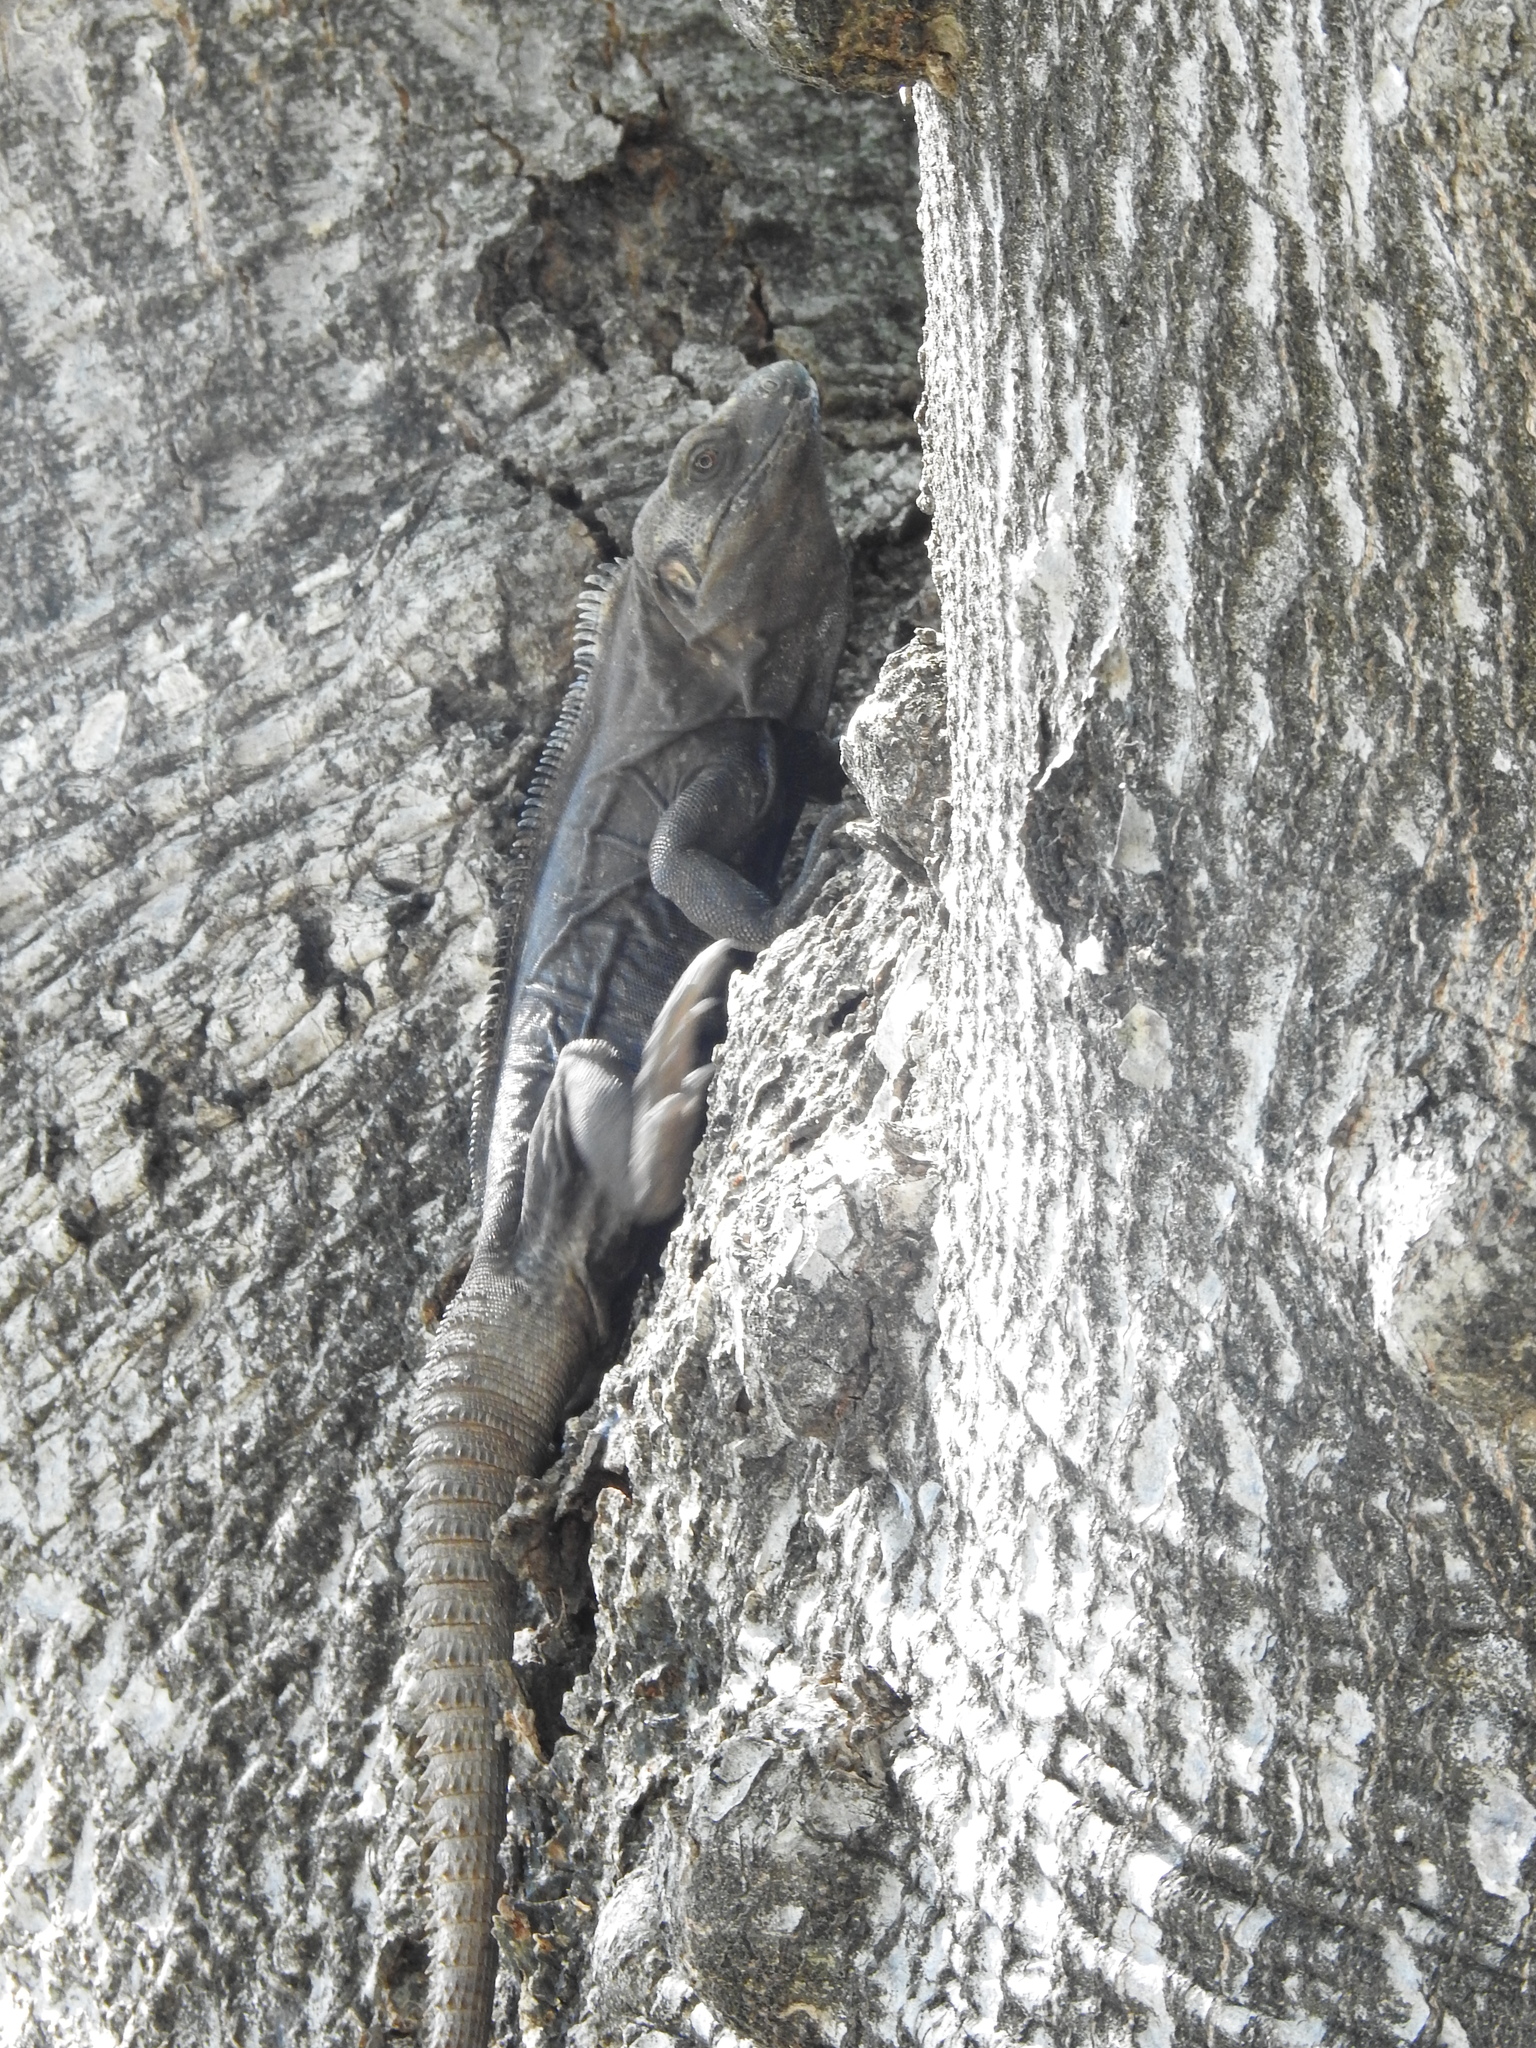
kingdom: Animalia
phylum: Chordata
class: Squamata
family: Iguanidae
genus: Ctenosaura
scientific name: Ctenosaura acanthura
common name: Northeastern spinytail iguana
